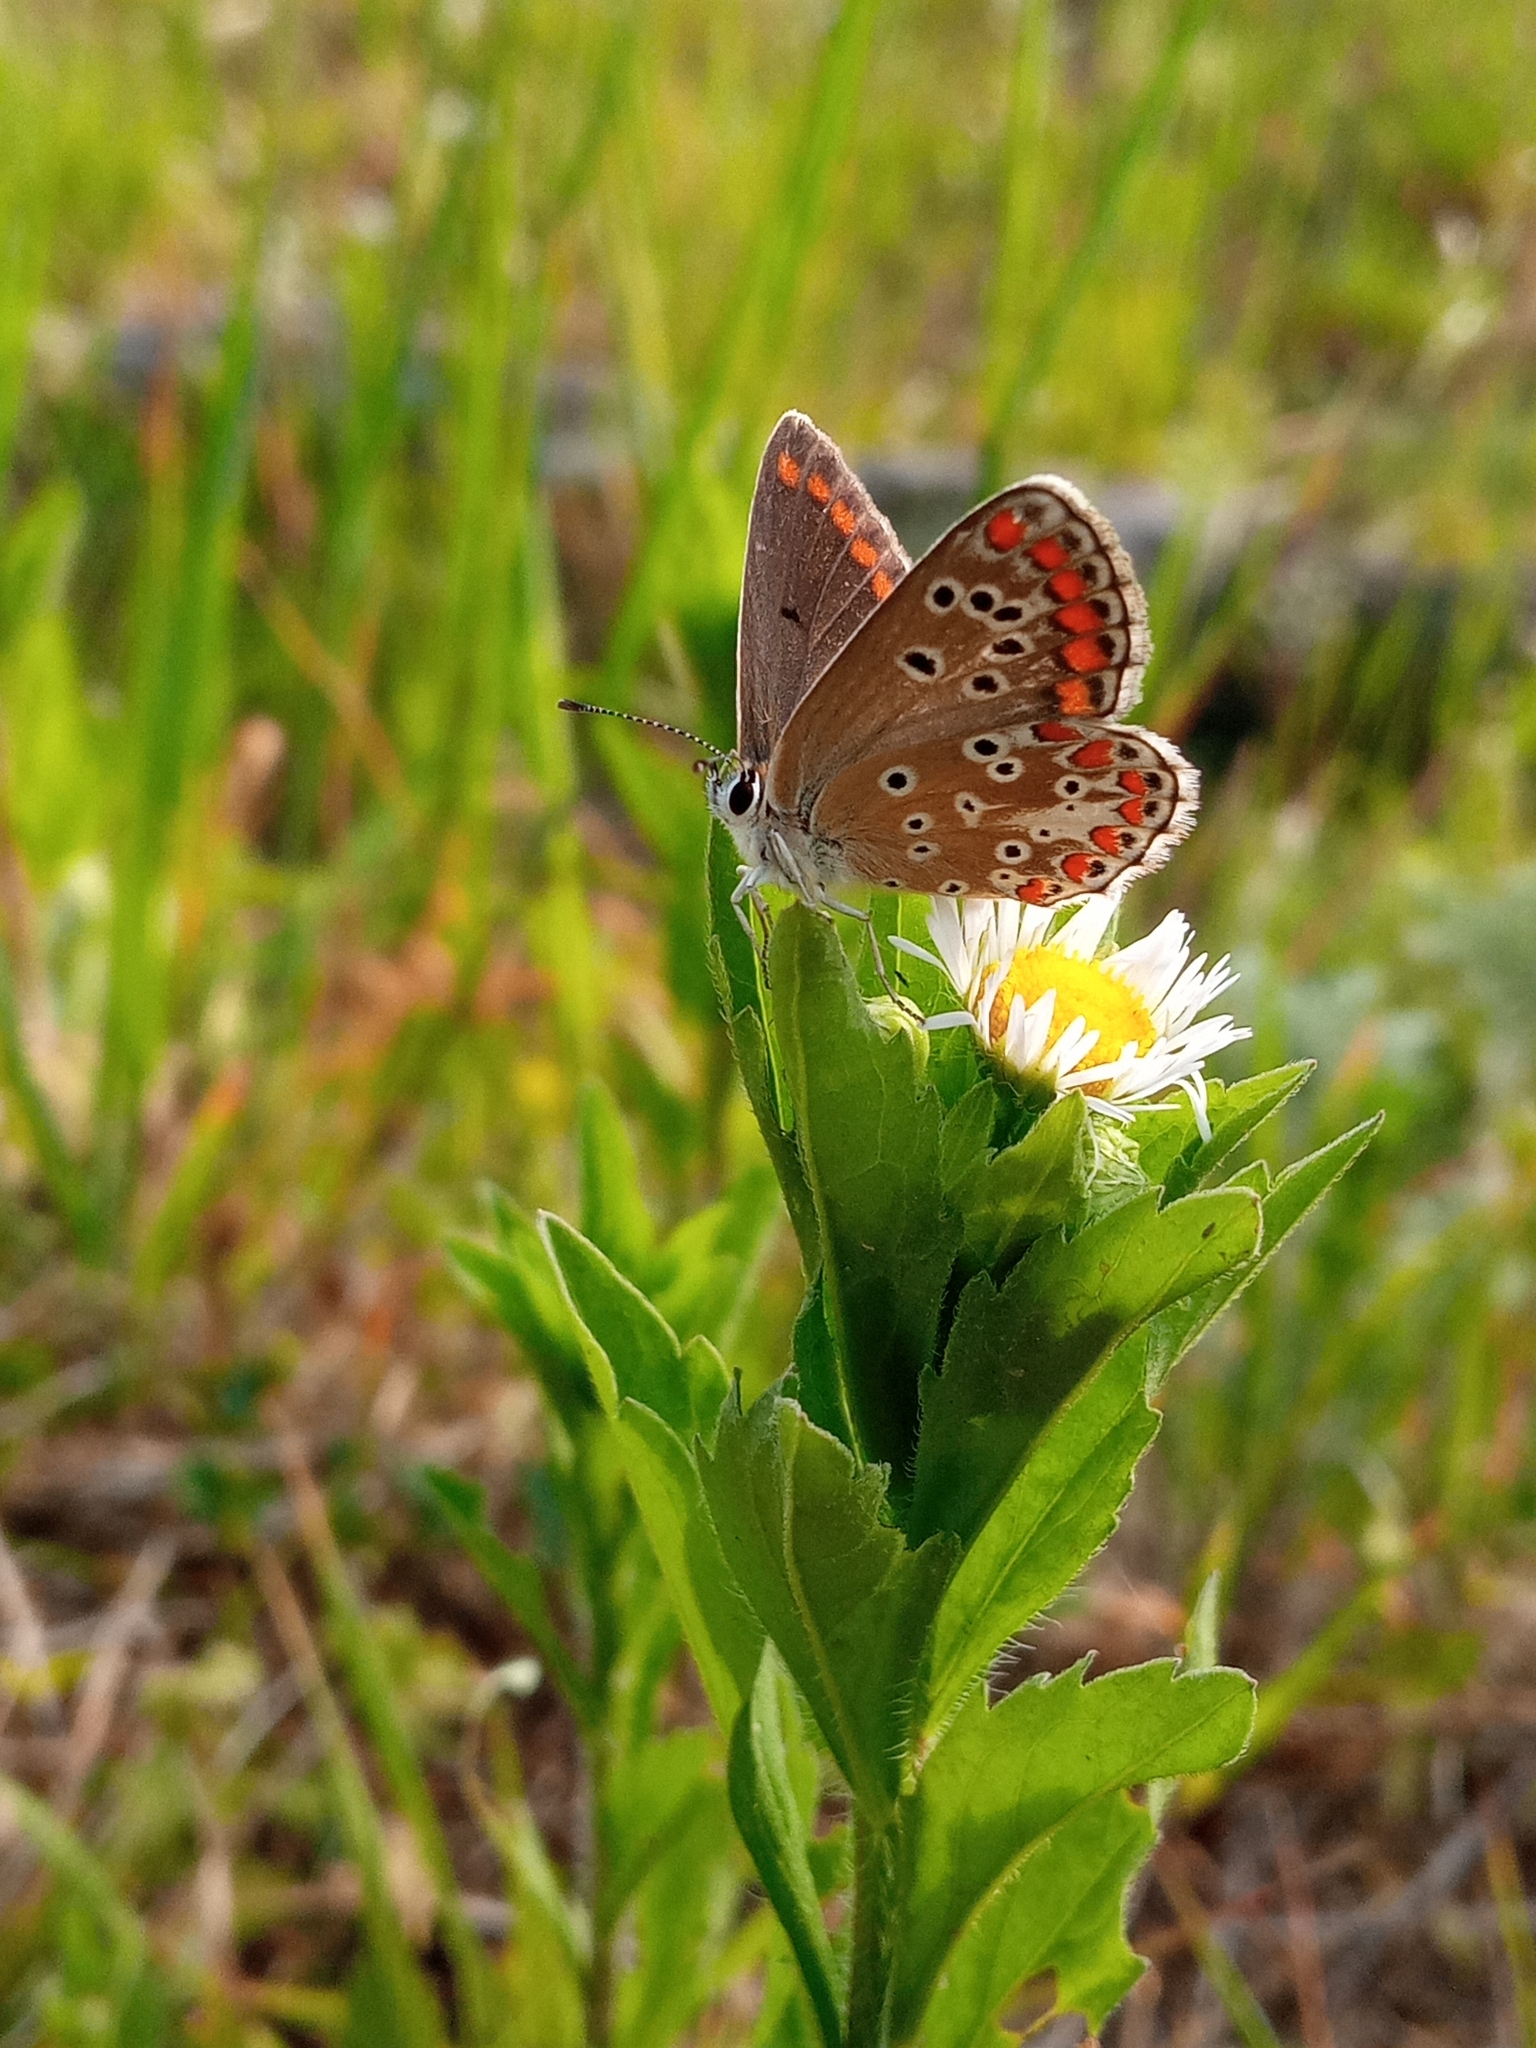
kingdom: Animalia
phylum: Arthropoda
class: Insecta
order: Lepidoptera
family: Lycaenidae
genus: Aricia
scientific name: Aricia agestis
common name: Brown argus
